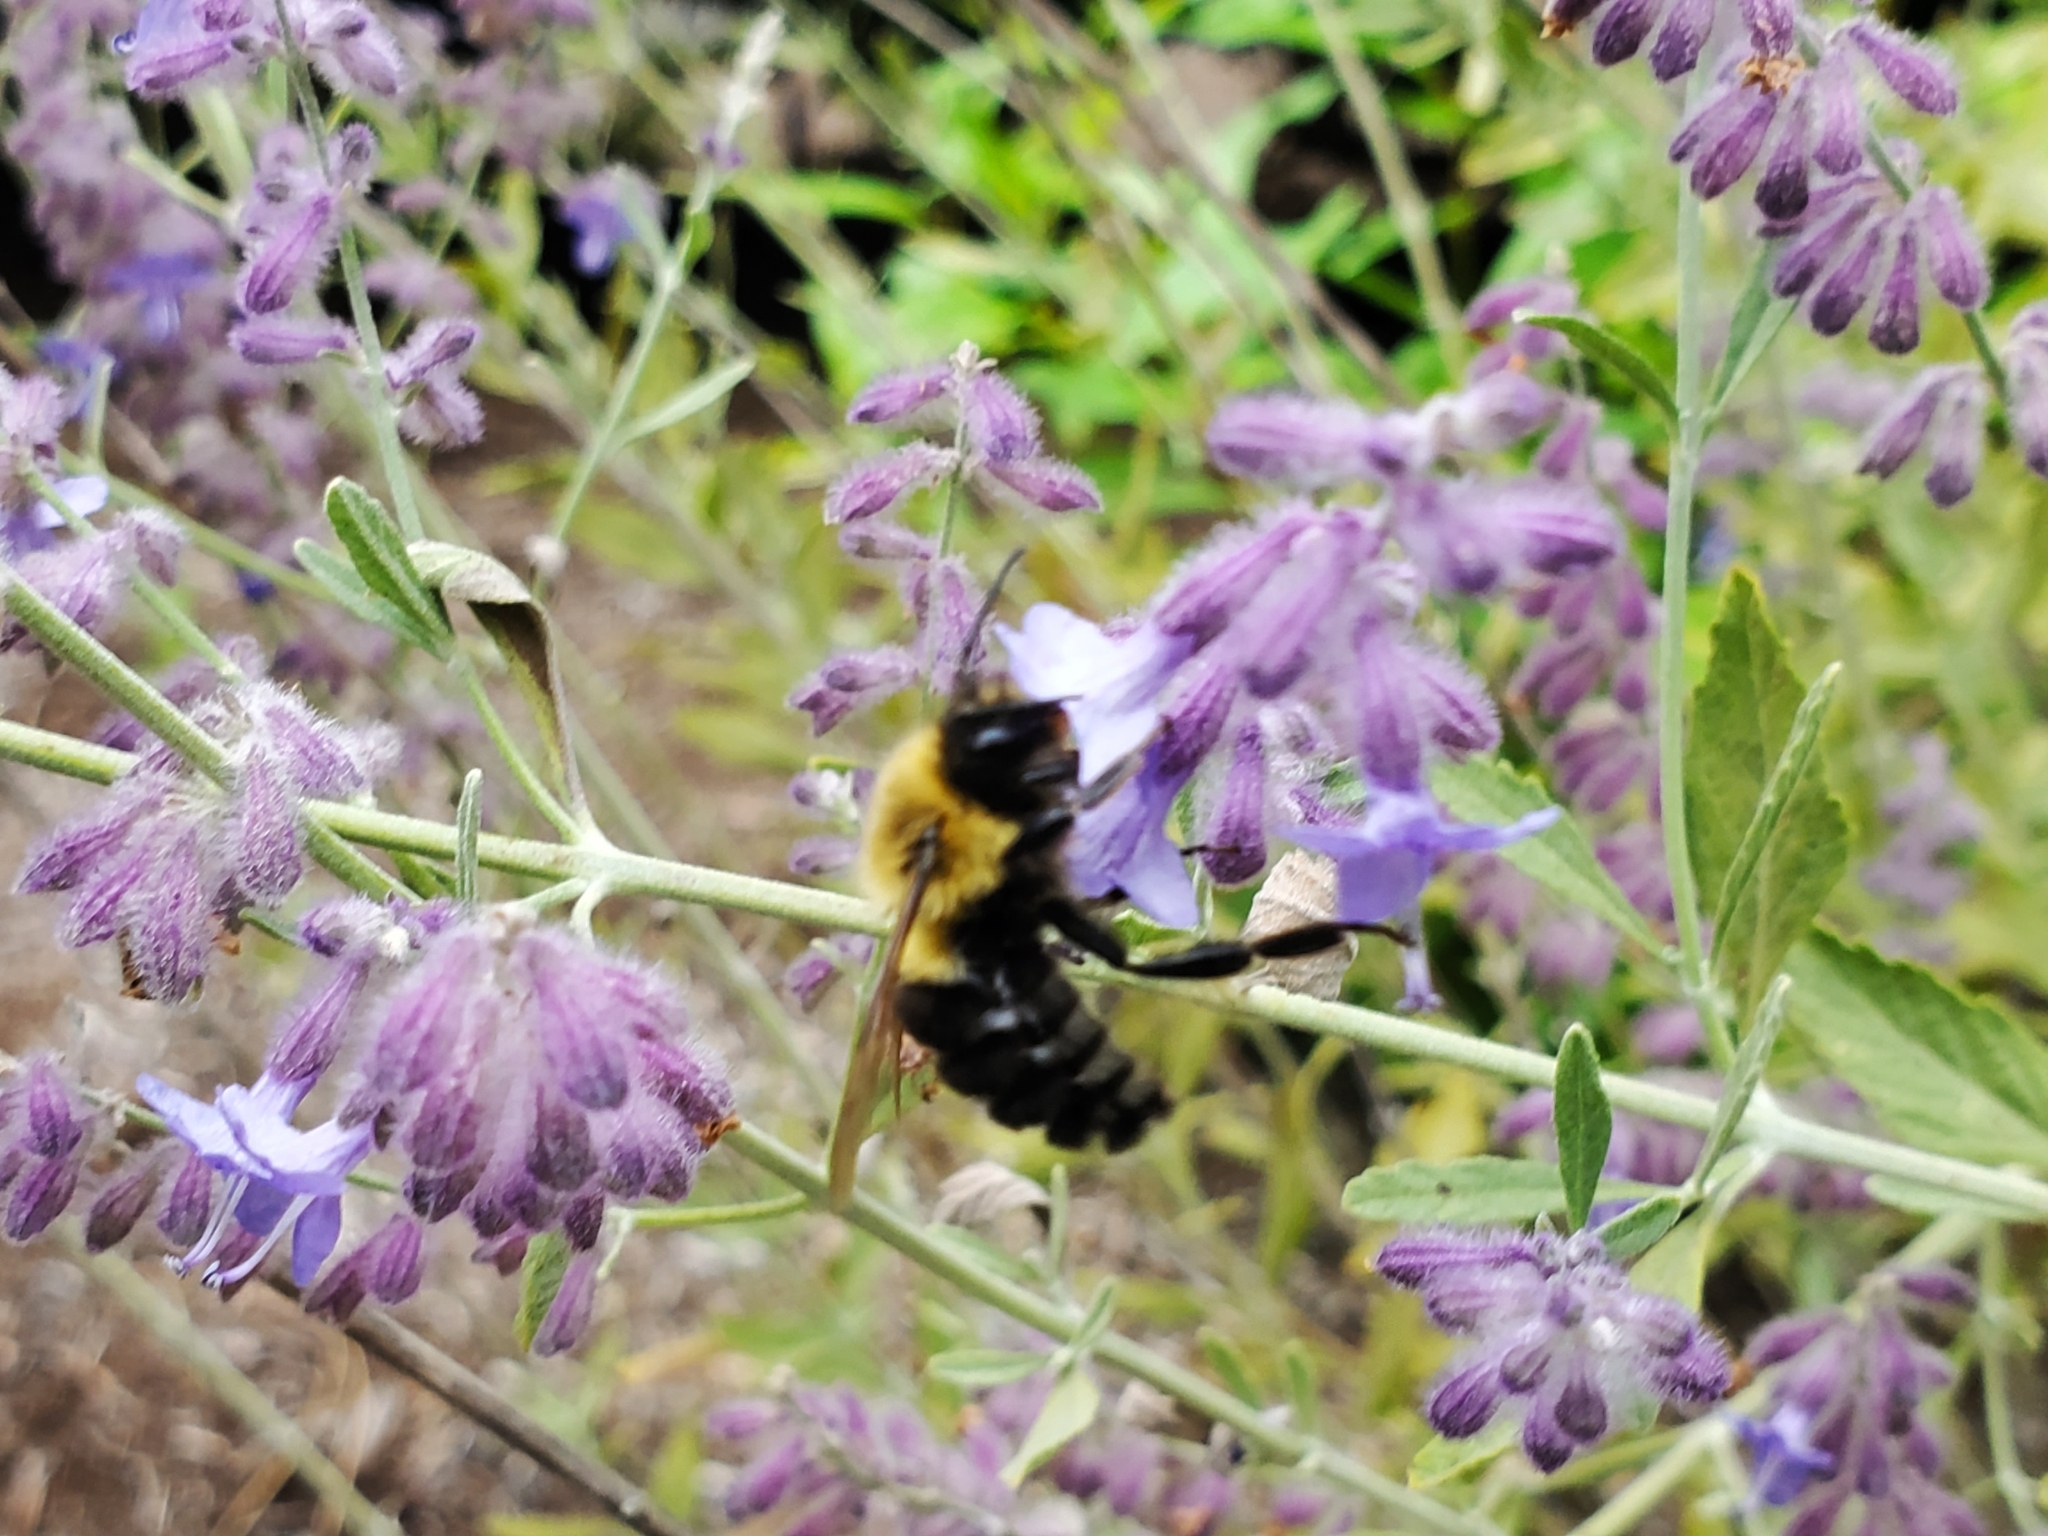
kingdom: Animalia
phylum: Arthropoda
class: Insecta
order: Hymenoptera
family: Apidae
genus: Bombus
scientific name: Bombus impatiens
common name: Common eastern bumble bee
